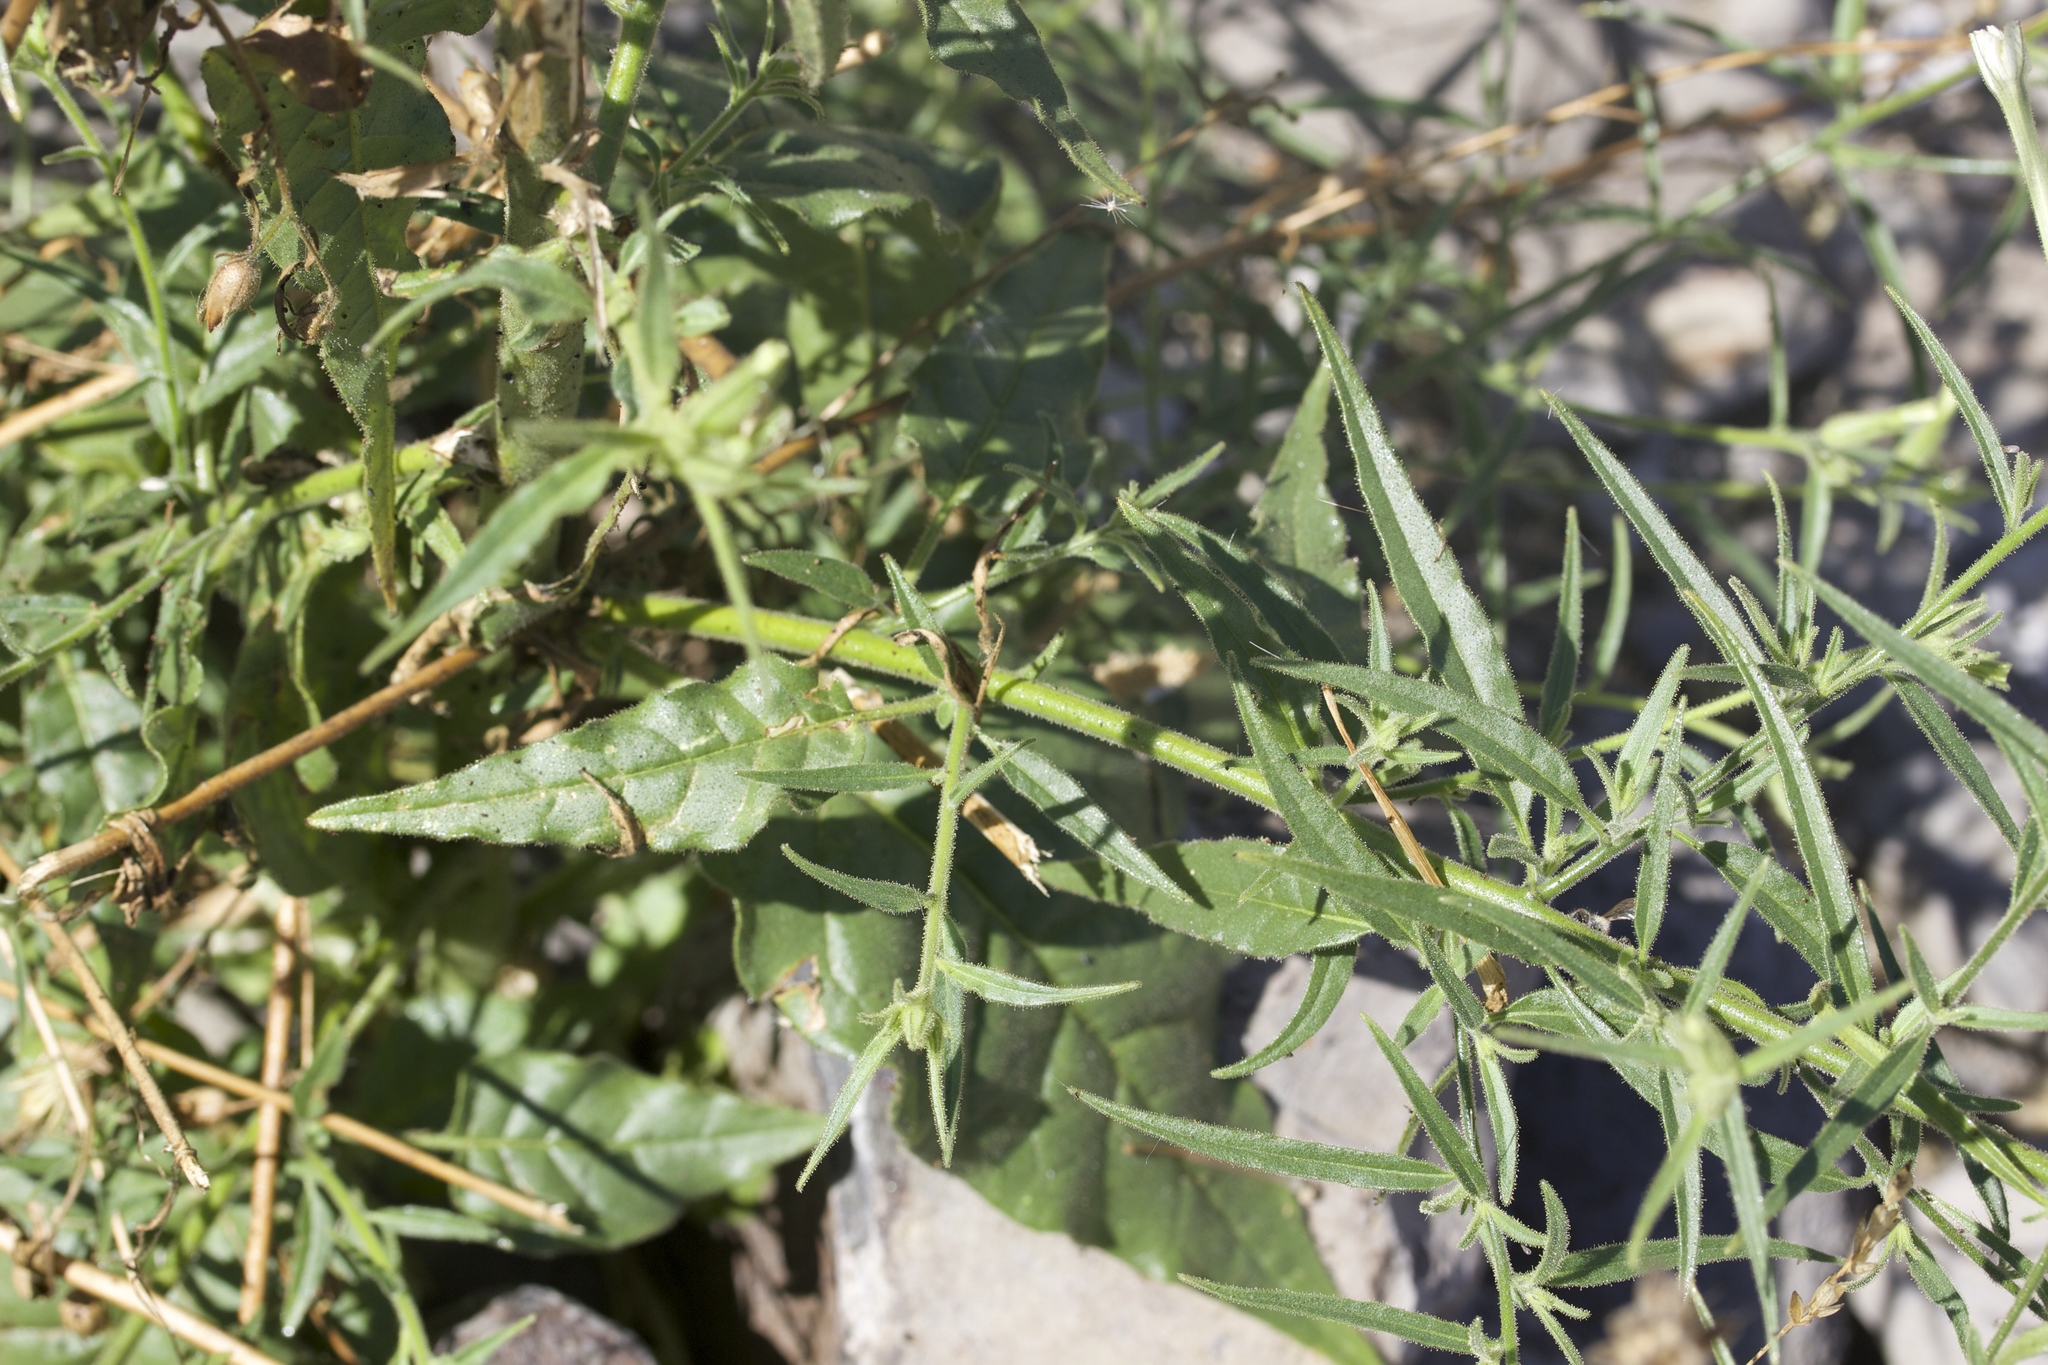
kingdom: Plantae
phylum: Tracheophyta
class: Magnoliopsida
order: Solanales
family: Solanaceae
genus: Nicotiana
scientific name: Nicotiana acuminata
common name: Manyflower tobacco
